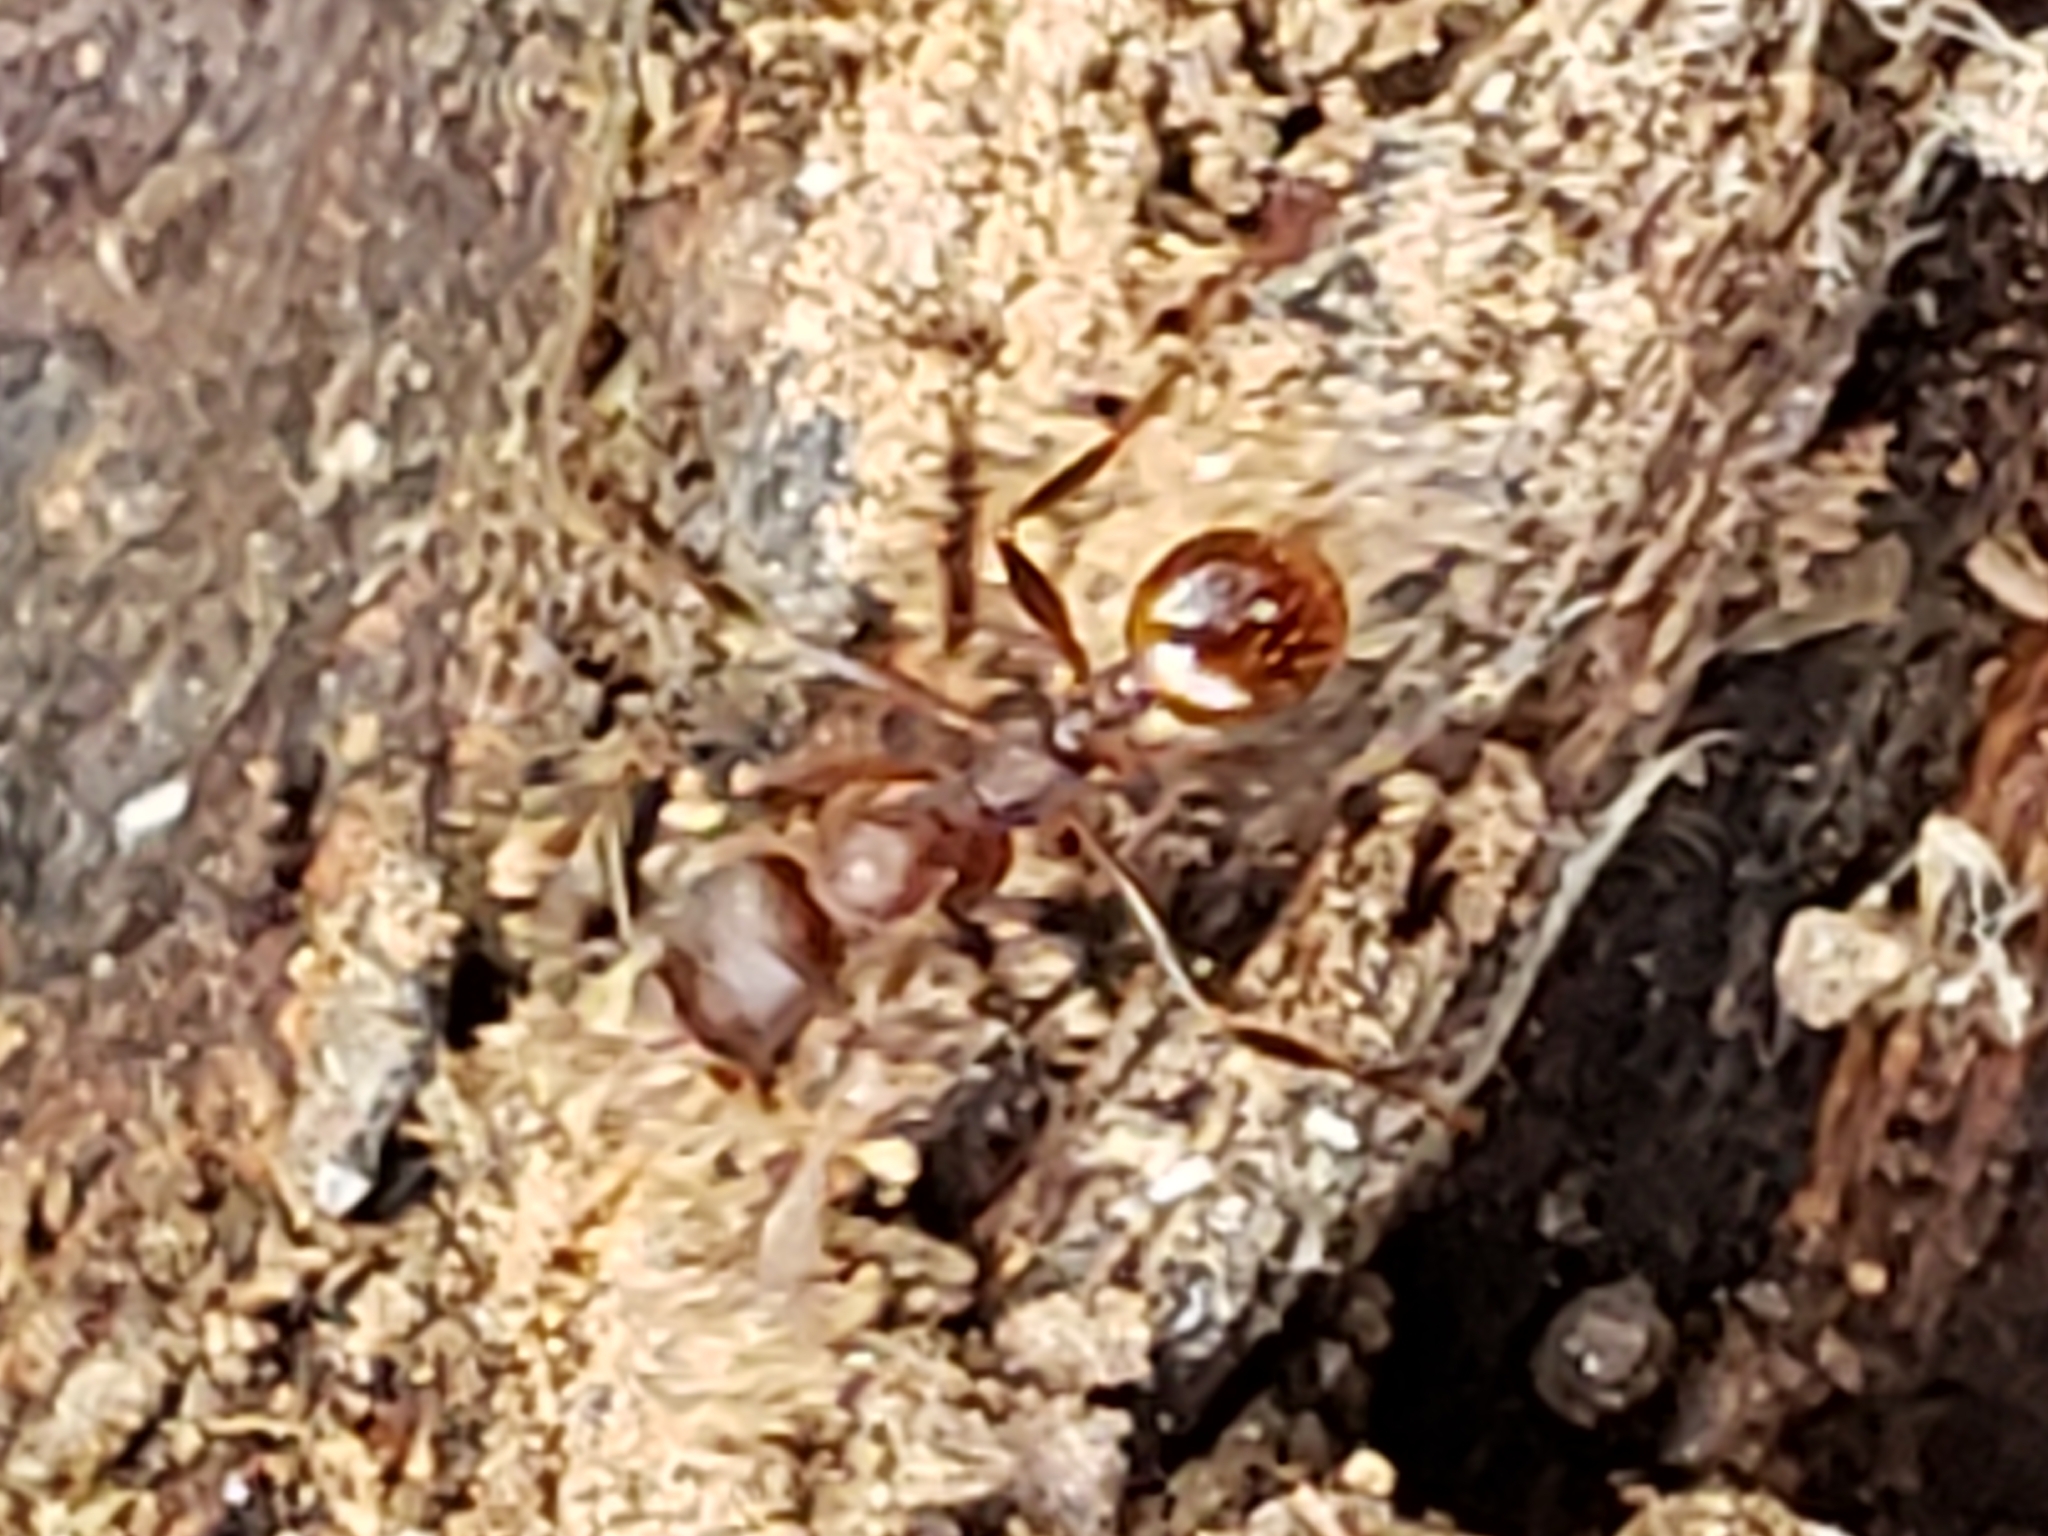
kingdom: Animalia
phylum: Arthropoda
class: Insecta
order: Hymenoptera
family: Formicidae
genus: Aphaenogaster
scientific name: Aphaenogaster fulva
